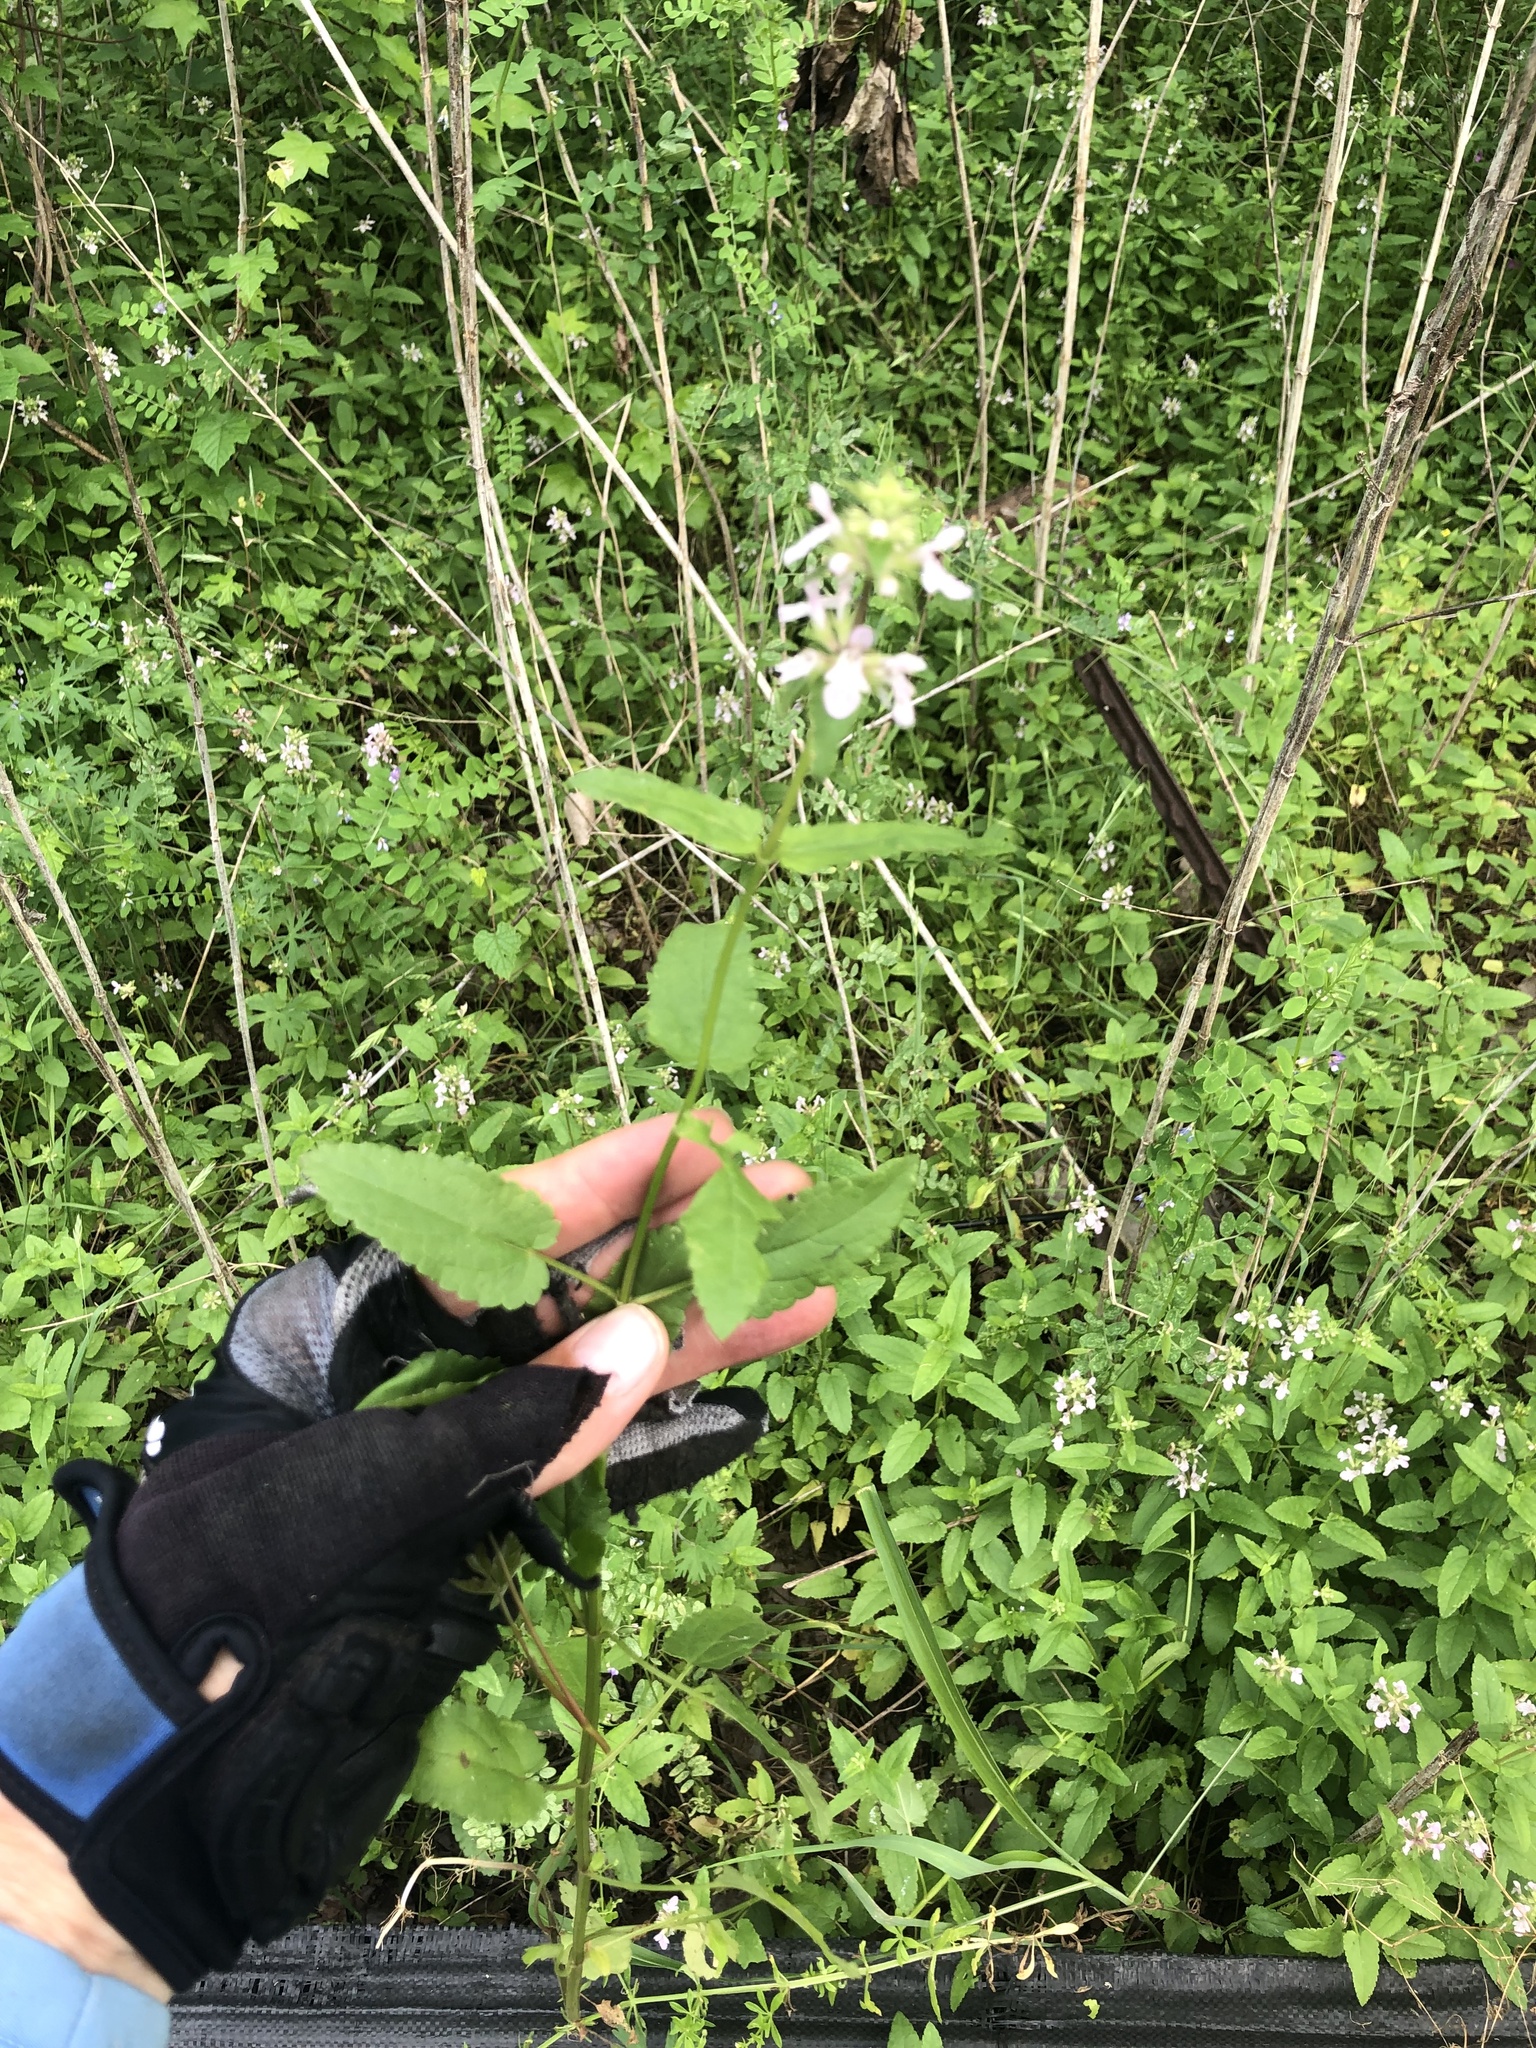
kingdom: Plantae
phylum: Tracheophyta
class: Magnoliopsida
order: Lamiales
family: Lamiaceae
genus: Stachys
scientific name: Stachys floridana
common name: Florida betony
